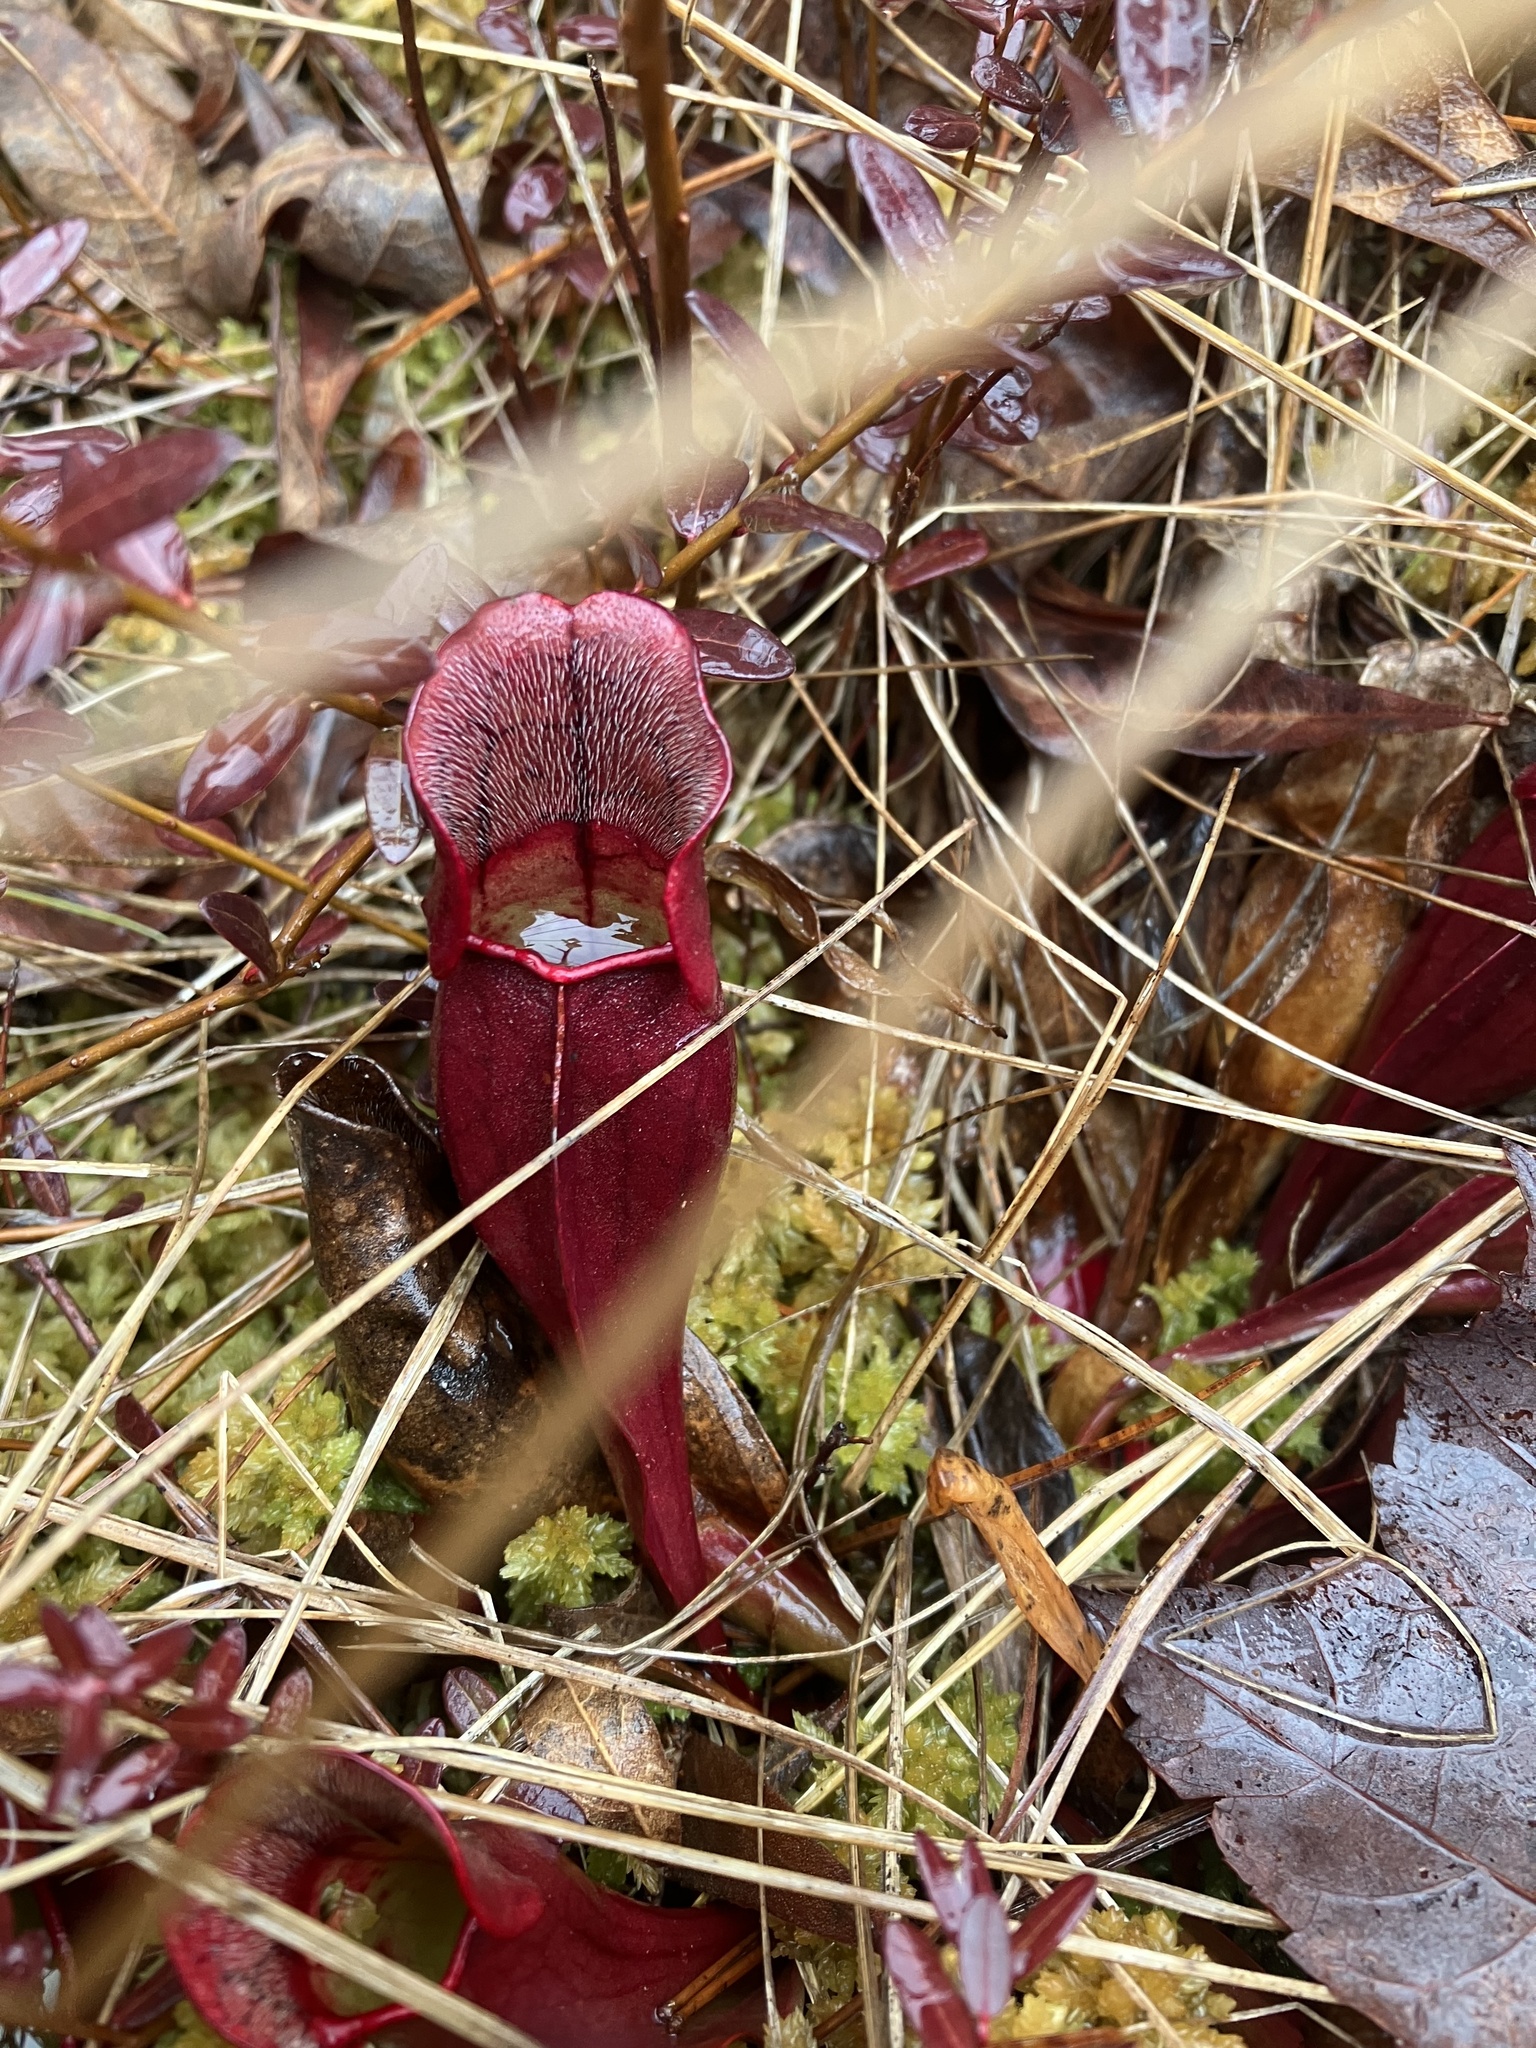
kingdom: Plantae
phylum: Tracheophyta
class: Magnoliopsida
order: Ericales
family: Sarraceniaceae
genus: Sarracenia
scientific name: Sarracenia purpurea
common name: Pitcherplant
